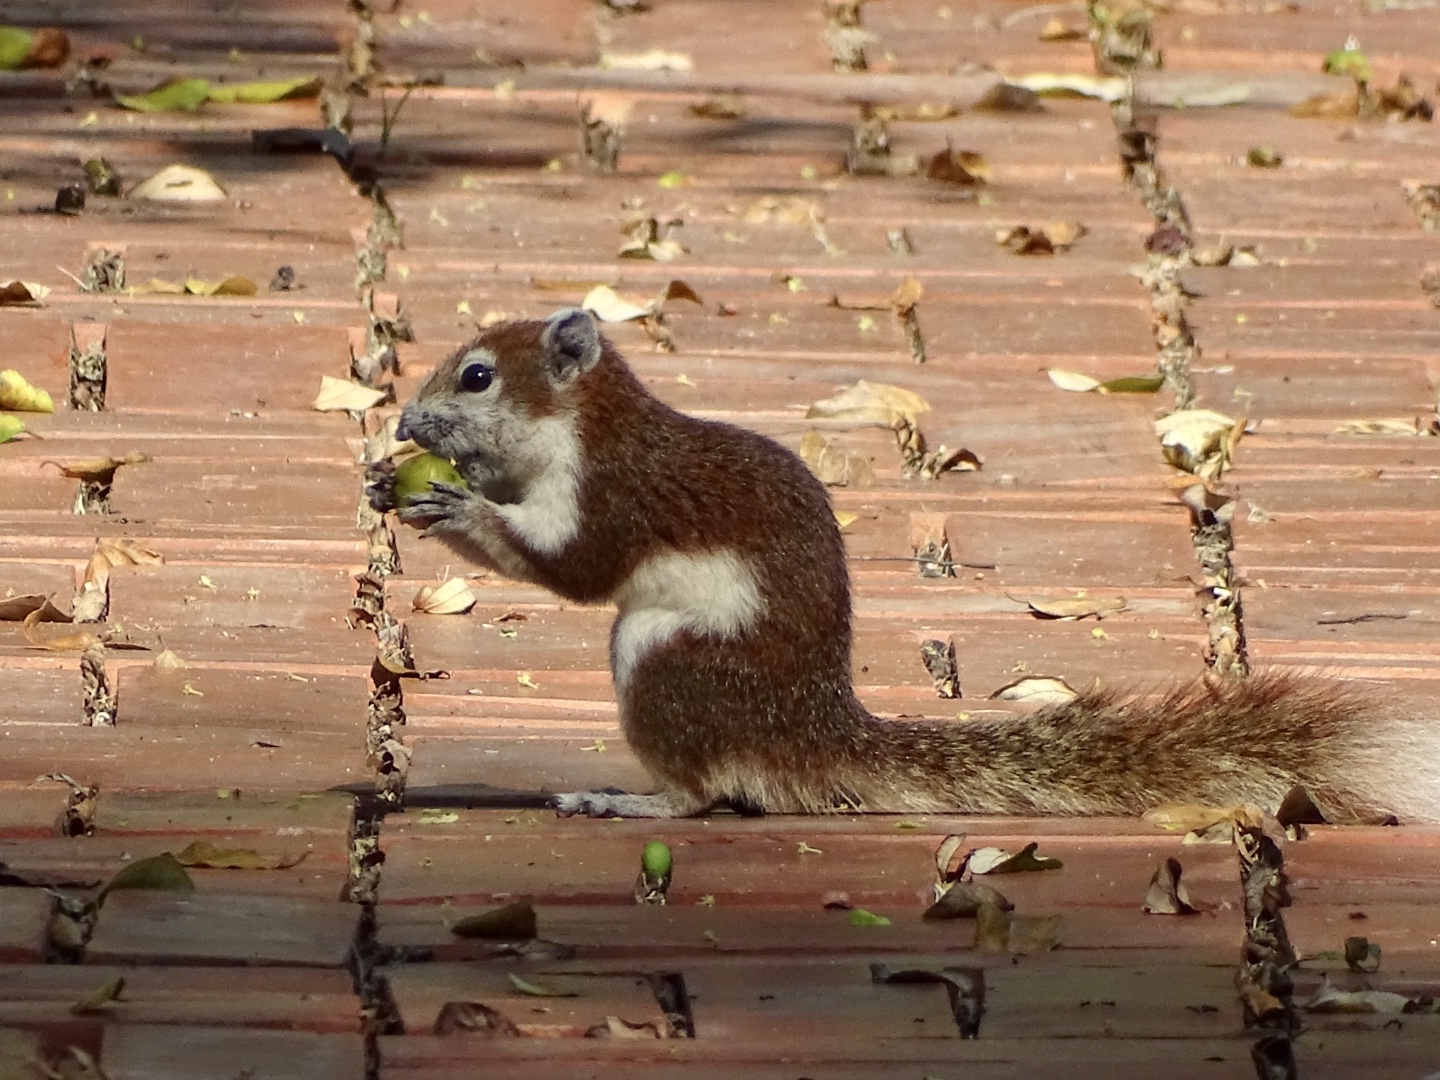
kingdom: Animalia
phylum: Chordata
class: Mammalia
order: Rodentia
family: Sciuridae
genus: Callosciurus
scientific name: Callosciurus finlaysonii
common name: Finlayson's squirrel
